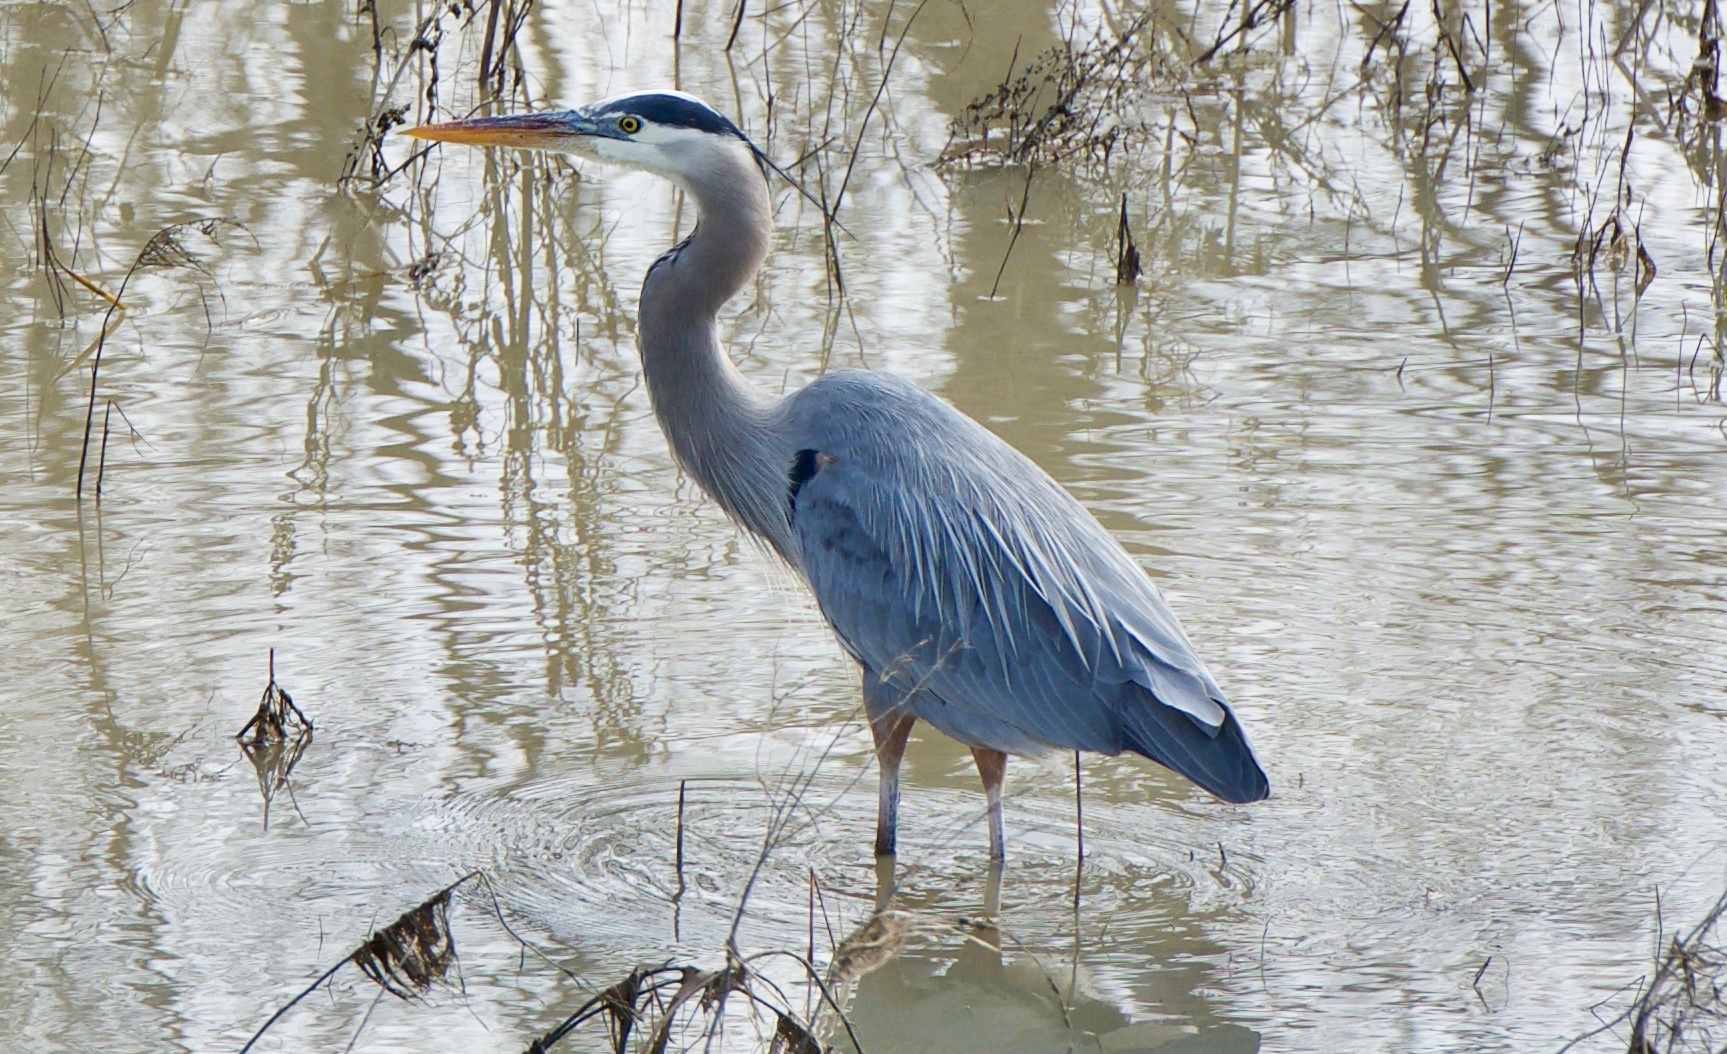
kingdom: Animalia
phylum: Chordata
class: Aves
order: Pelecaniformes
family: Ardeidae
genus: Ardea
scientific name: Ardea herodias
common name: Great blue heron
